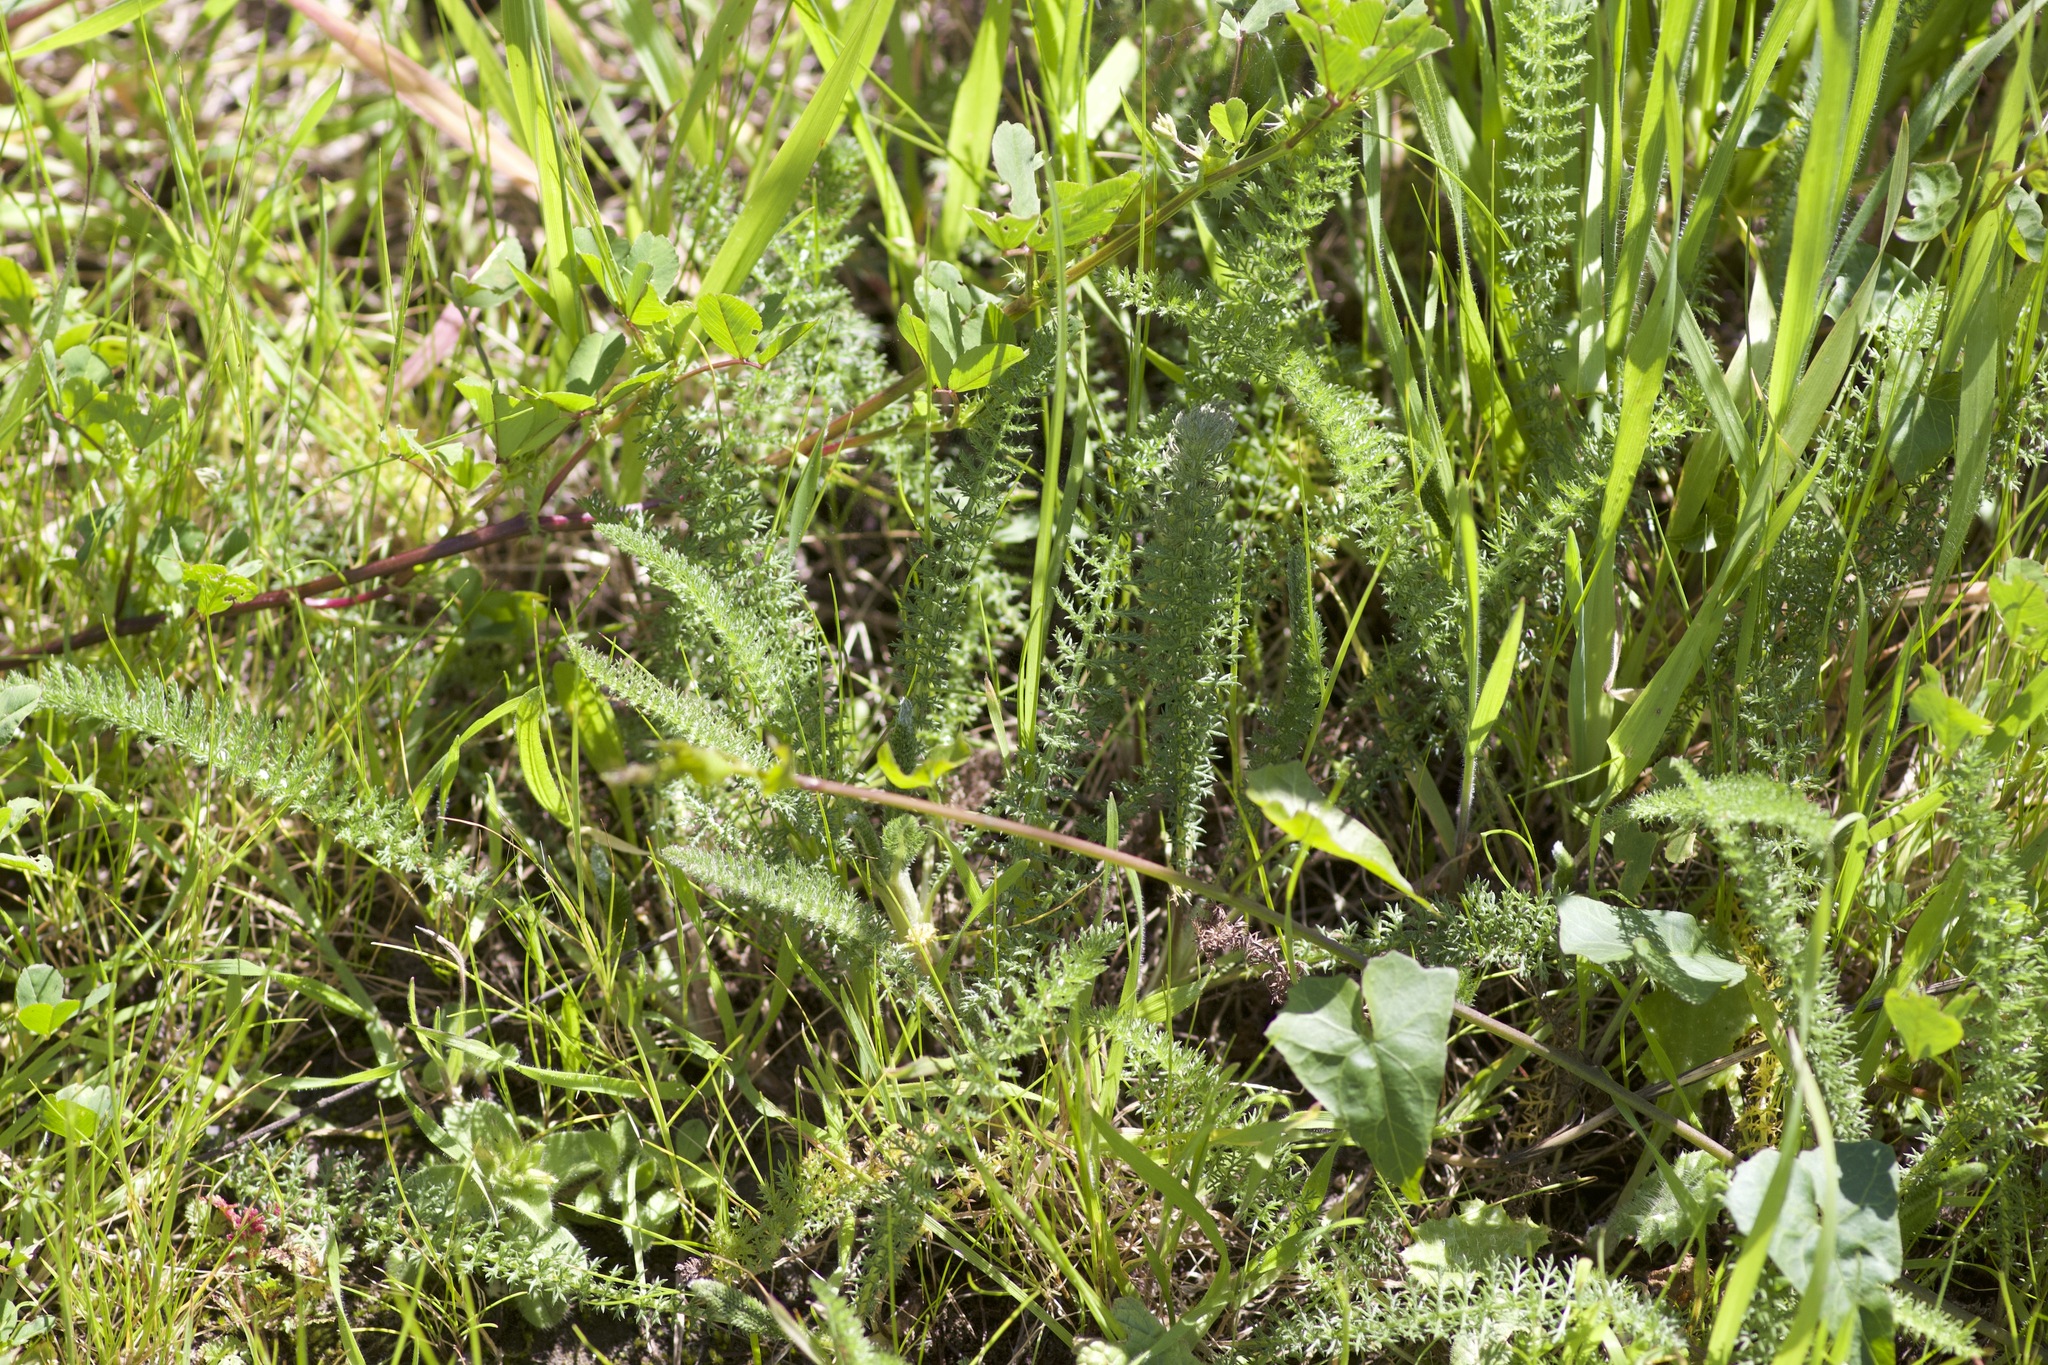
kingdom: Plantae
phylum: Tracheophyta
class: Magnoliopsida
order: Asterales
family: Asteraceae
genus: Achillea
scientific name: Achillea millefolium
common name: Yarrow
